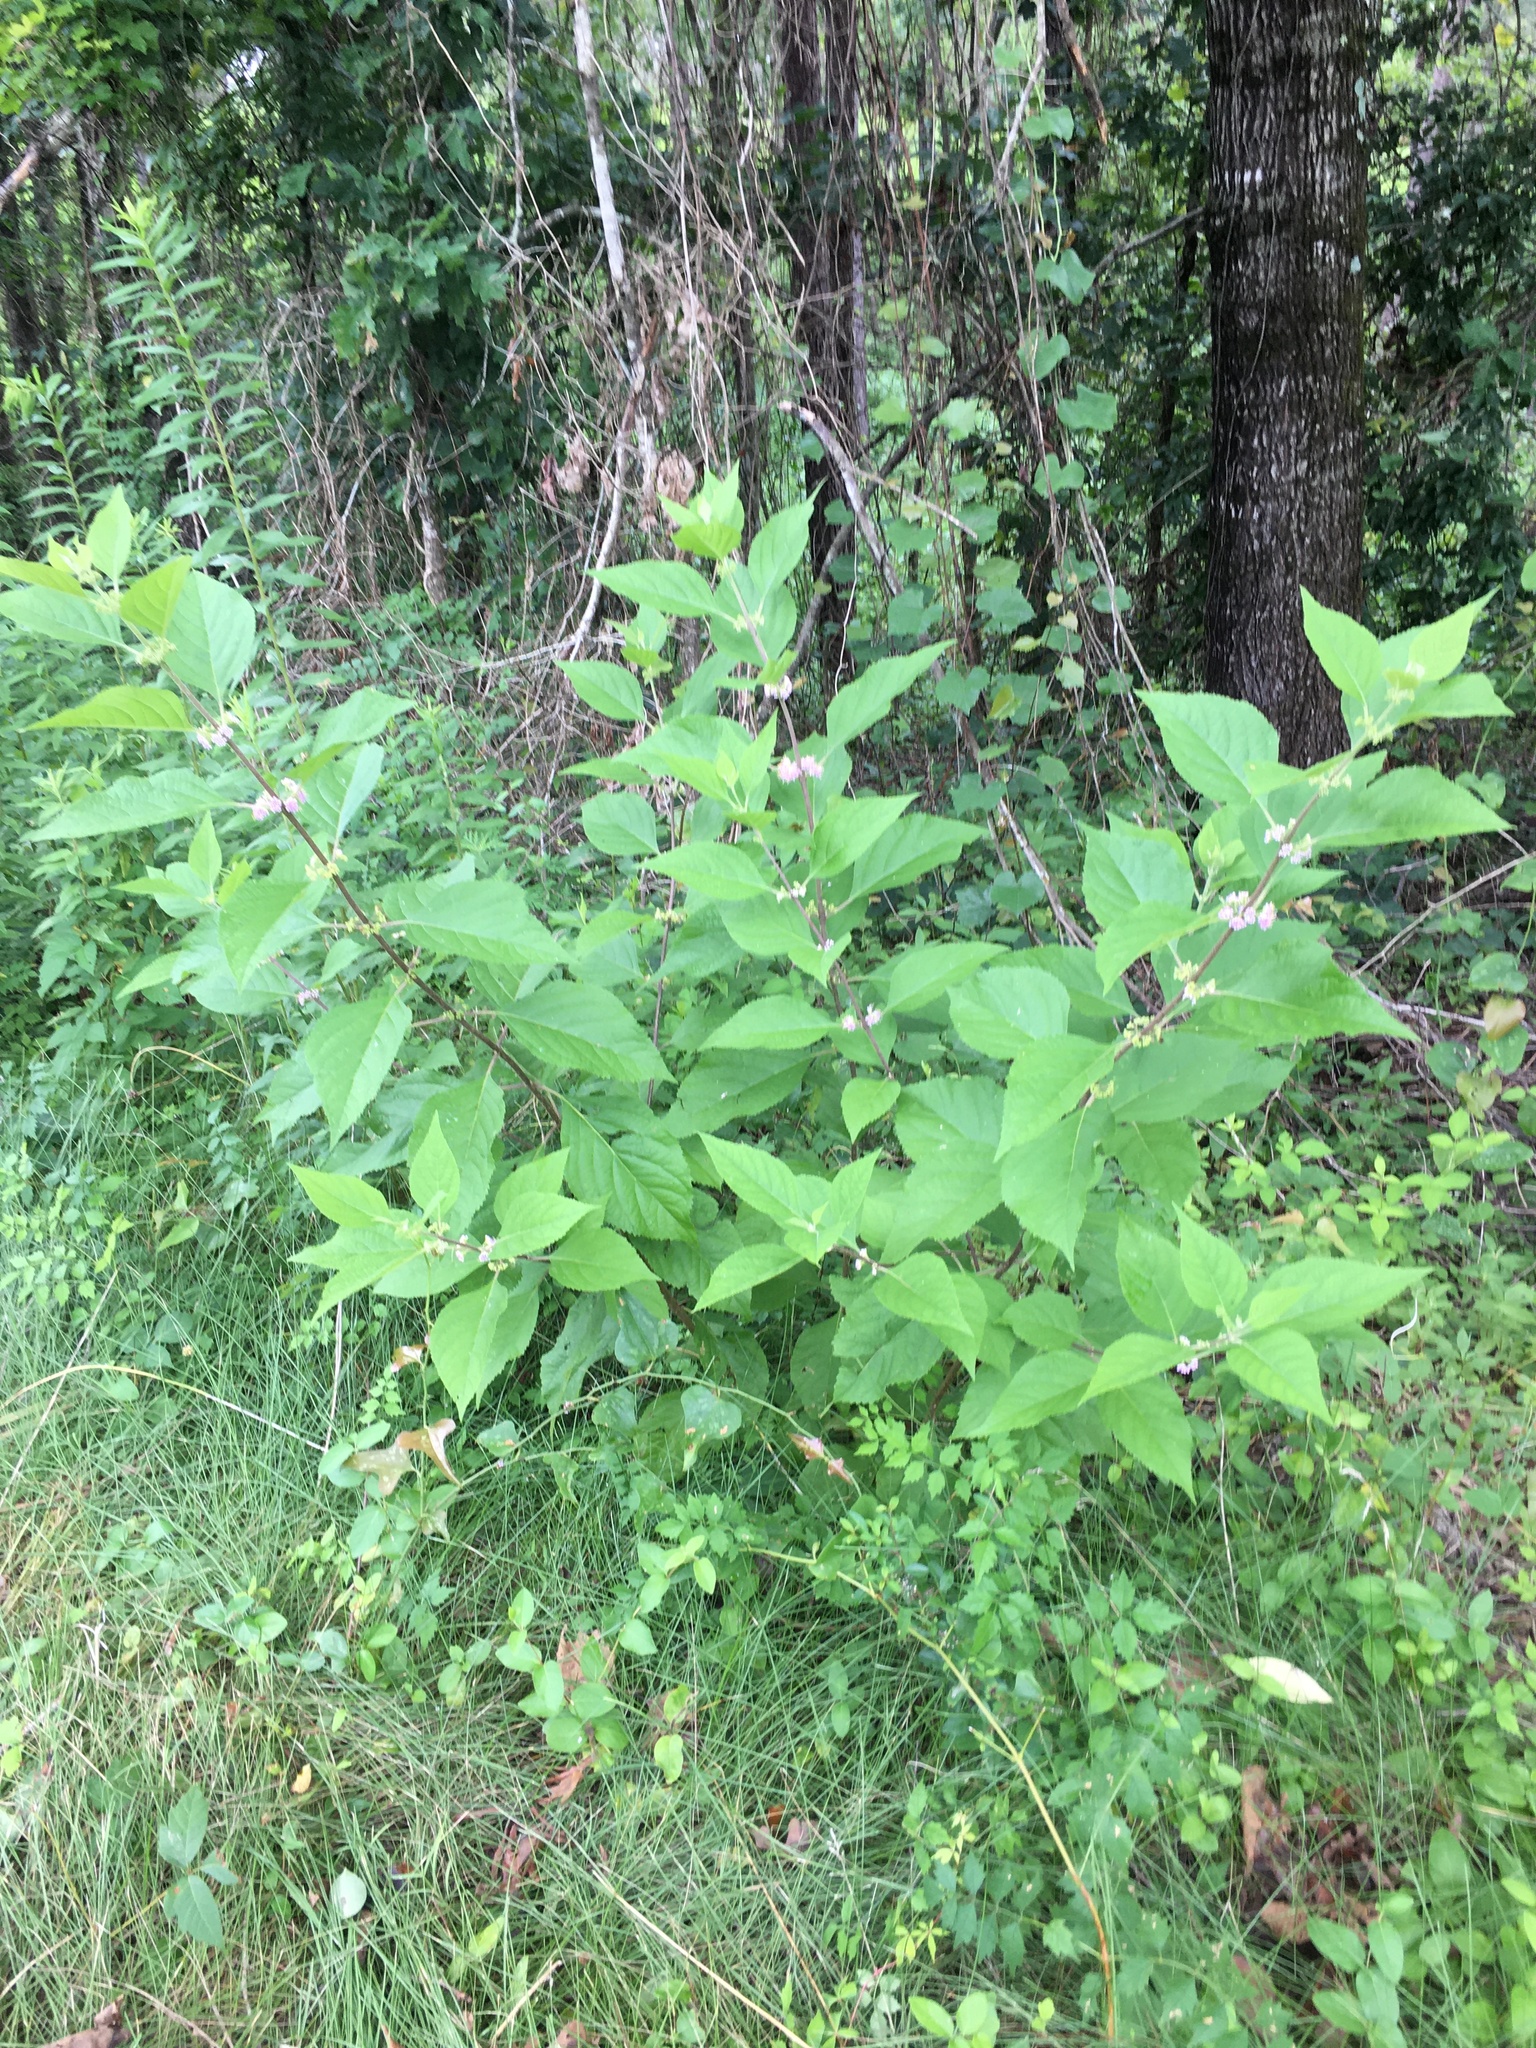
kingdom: Plantae
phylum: Tracheophyta
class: Magnoliopsida
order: Lamiales
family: Lamiaceae
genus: Callicarpa
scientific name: Callicarpa americana
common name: American beautyberry
